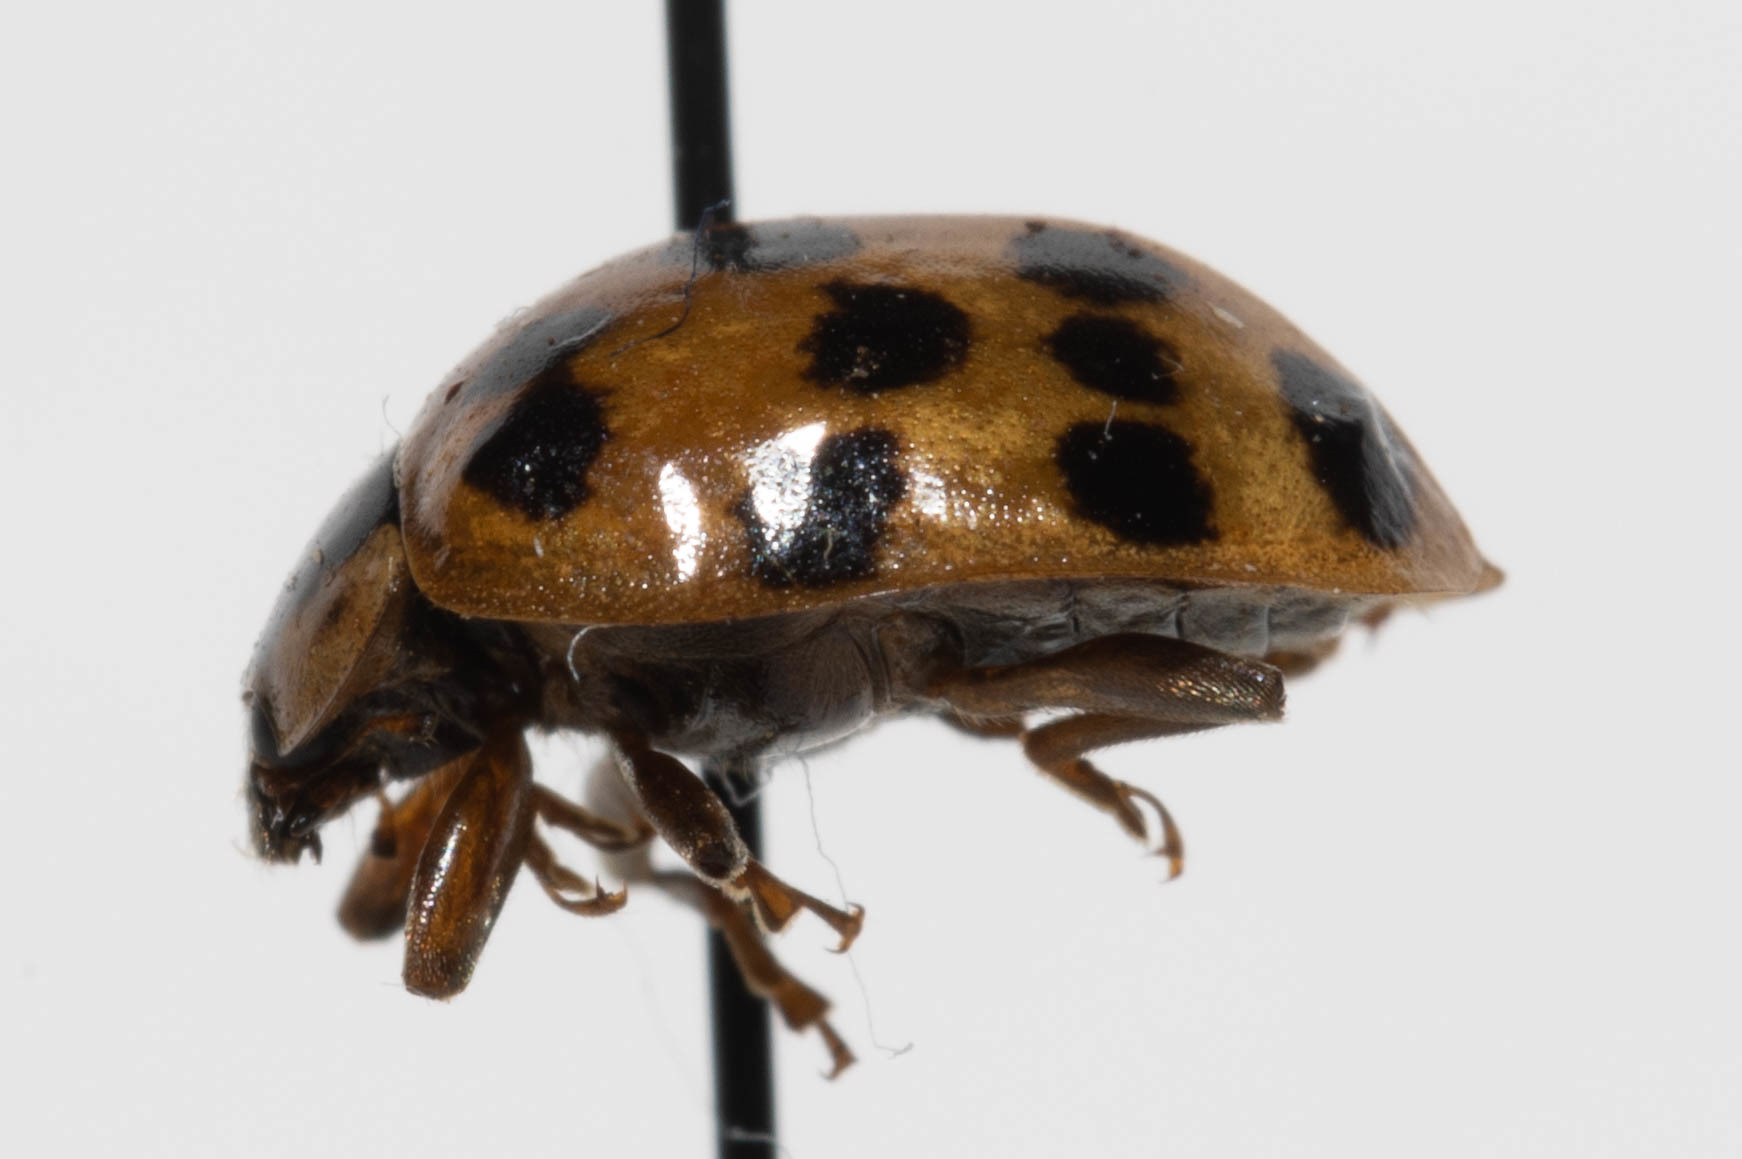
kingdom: Animalia
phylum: Arthropoda
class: Insecta
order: Coleoptera
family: Coccinellidae
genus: Harmonia
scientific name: Harmonia axyridis
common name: Harlequin ladybird
